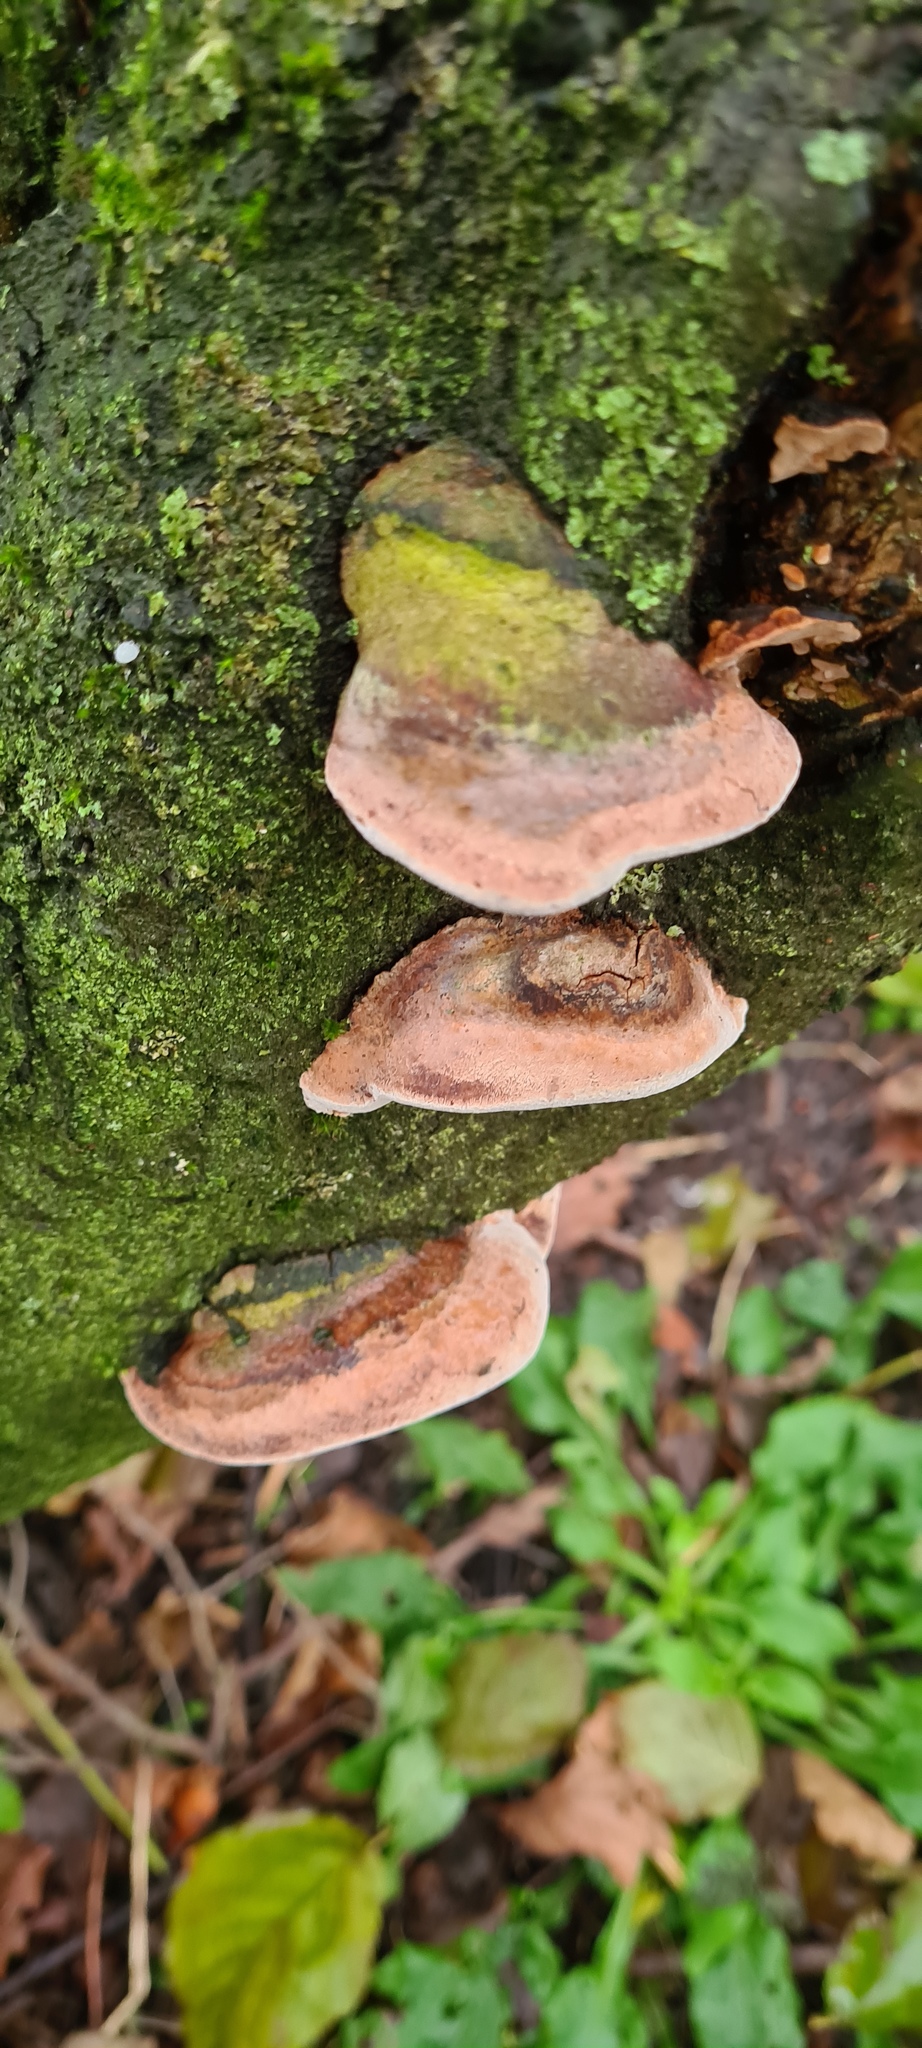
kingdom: Fungi
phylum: Basidiomycota
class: Agaricomycetes
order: Polyporales
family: Fomitopsidaceae
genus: Rhodofomes
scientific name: Rhodofomes roseus
